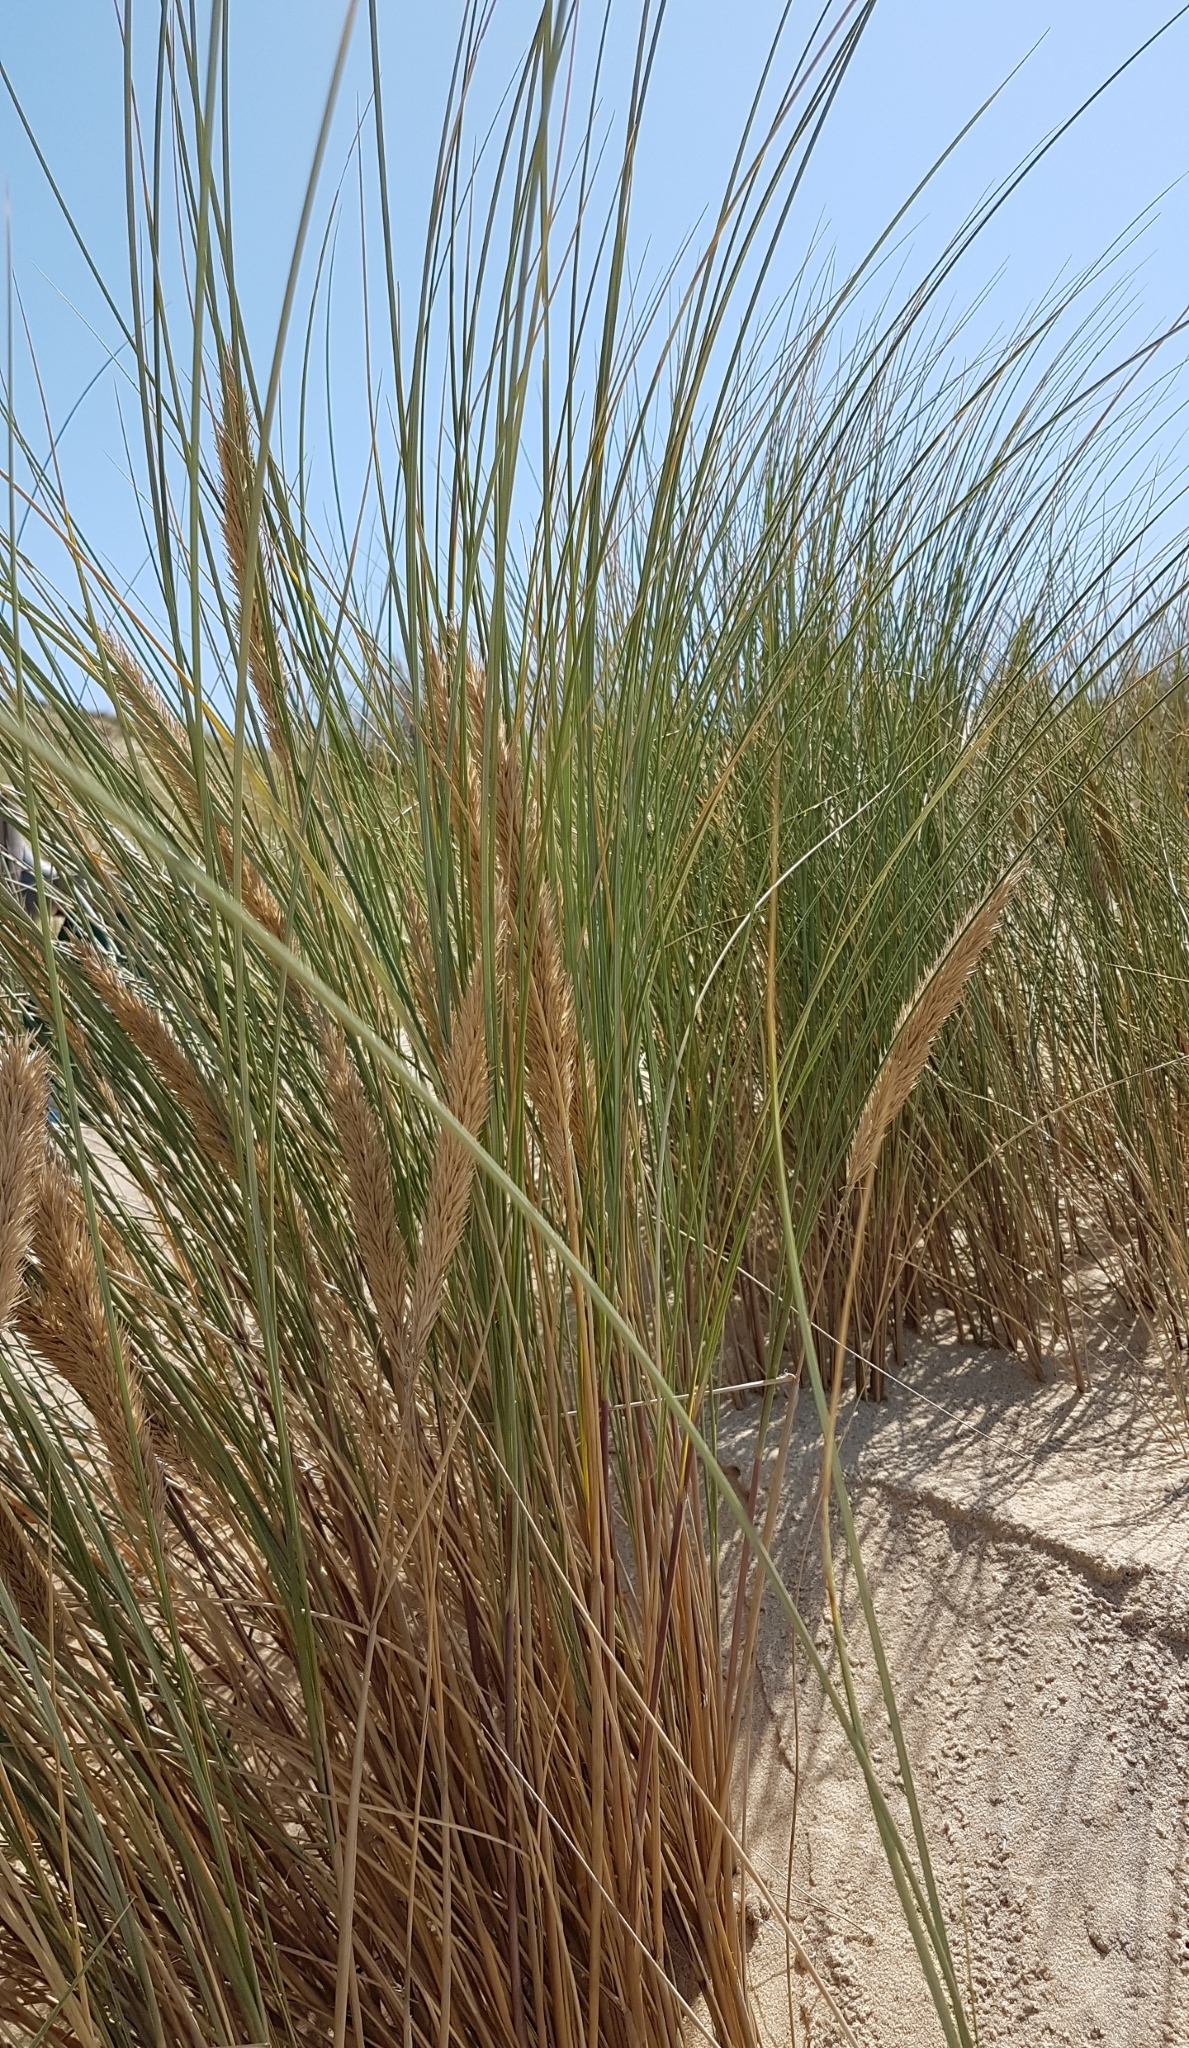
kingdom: Plantae
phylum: Tracheophyta
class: Liliopsida
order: Poales
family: Poaceae
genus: Calamagrostis
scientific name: Calamagrostis arenaria
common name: European beachgrass
